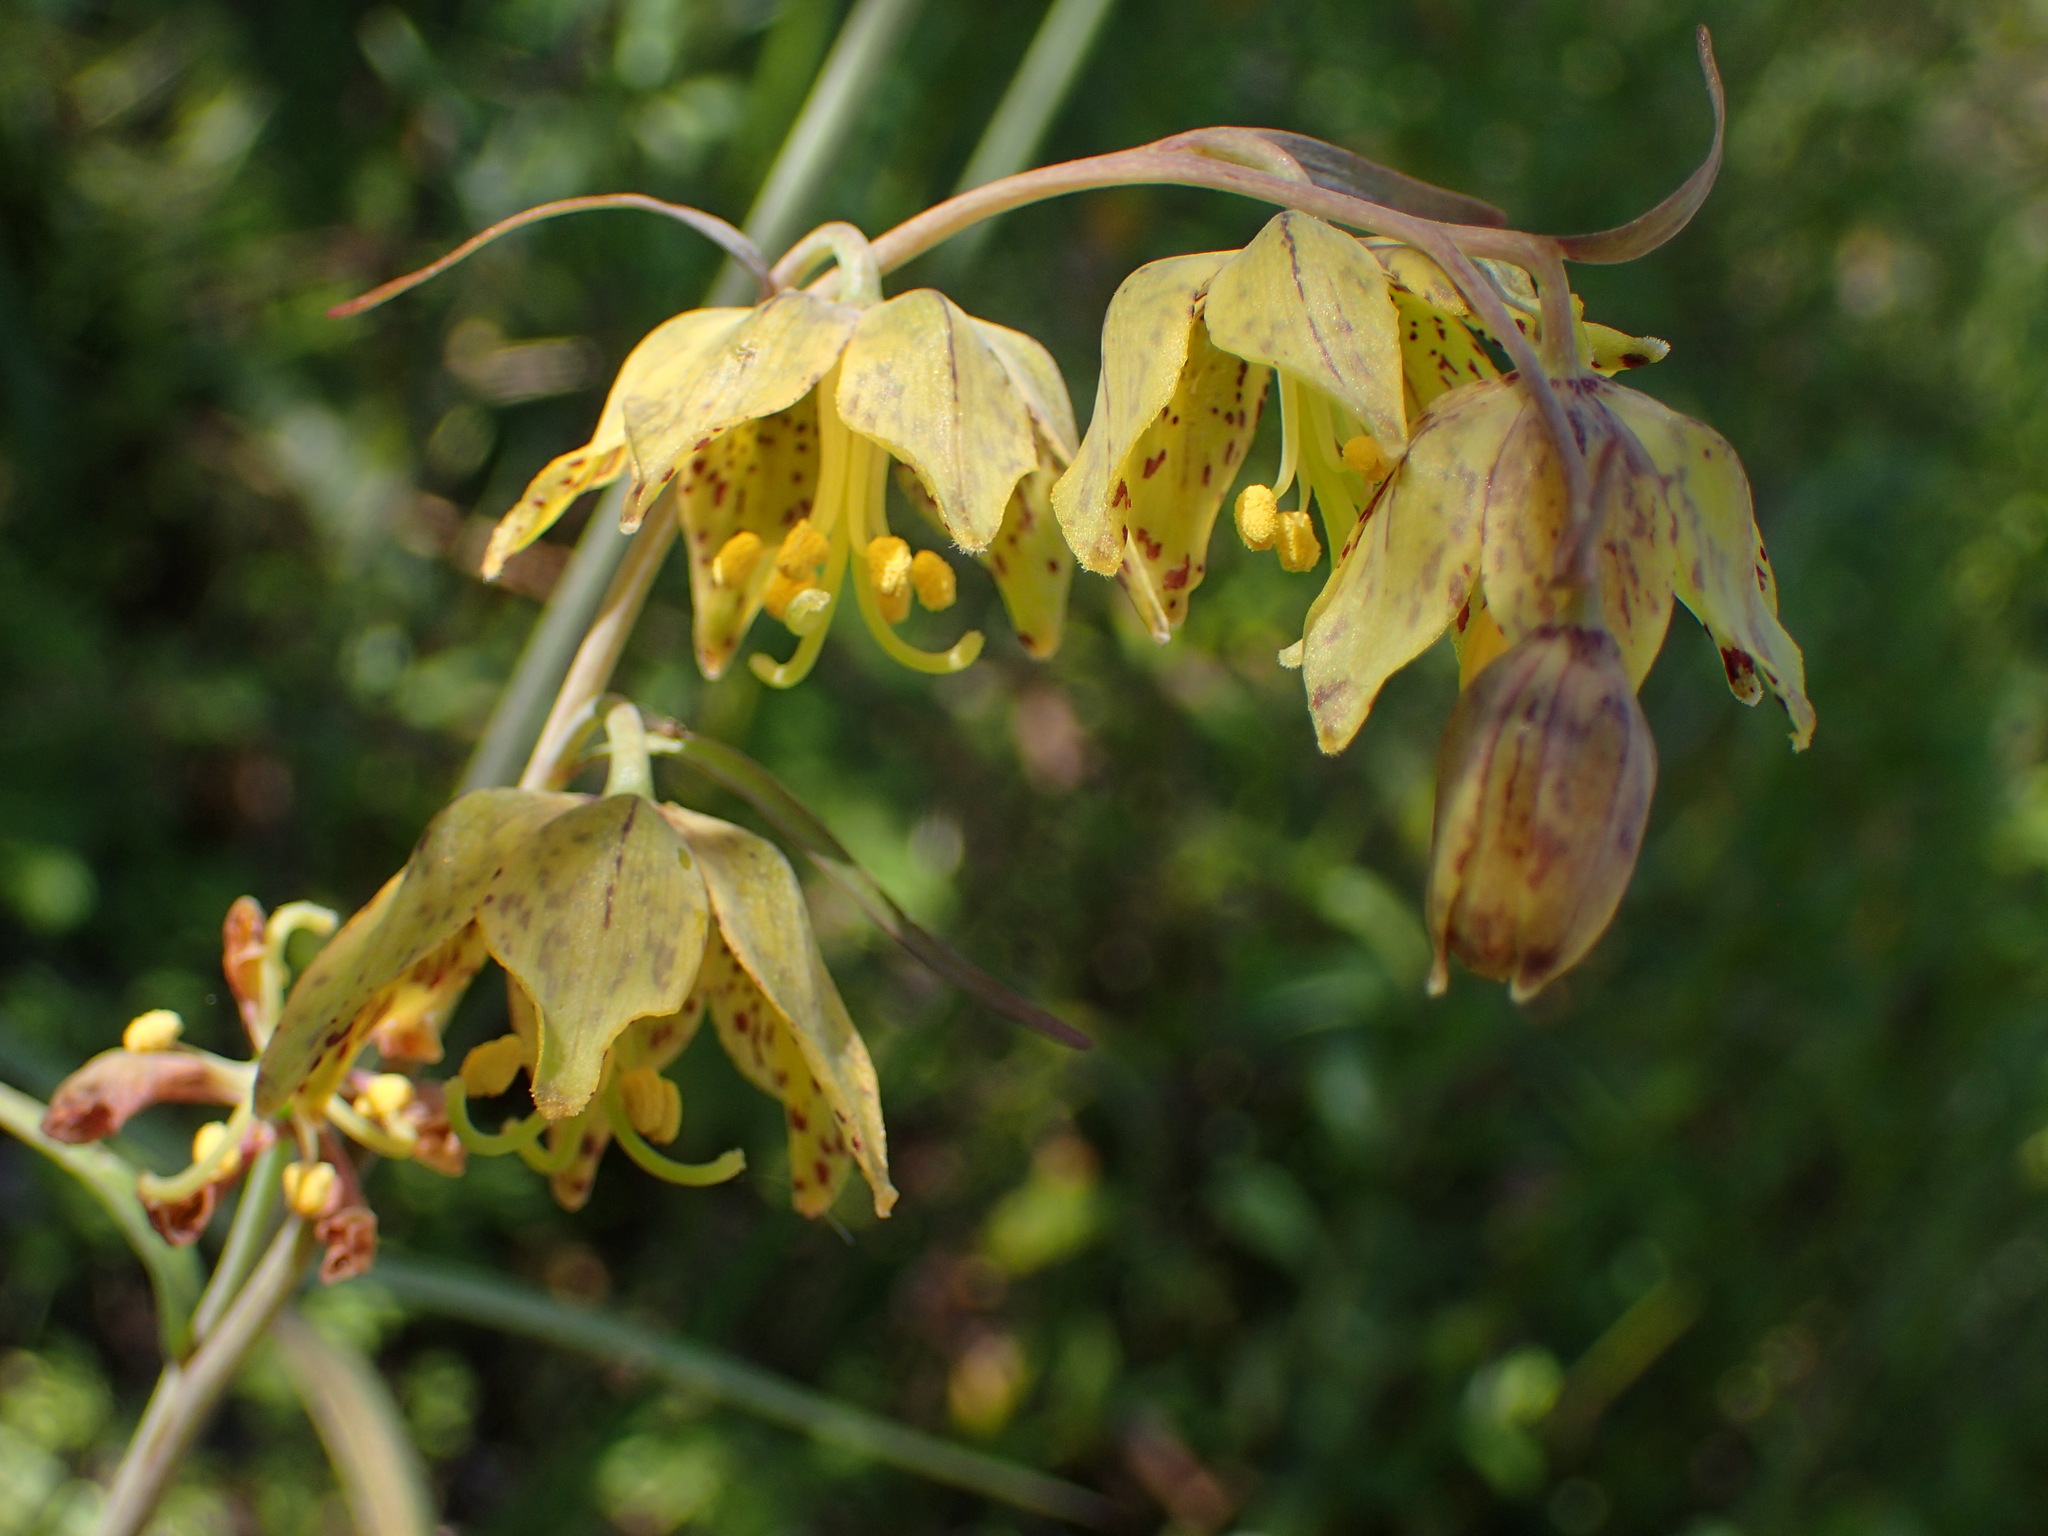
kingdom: Plantae
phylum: Tracheophyta
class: Liliopsida
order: Liliales
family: Liliaceae
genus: Fritillaria
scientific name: Fritillaria ojaiensis
